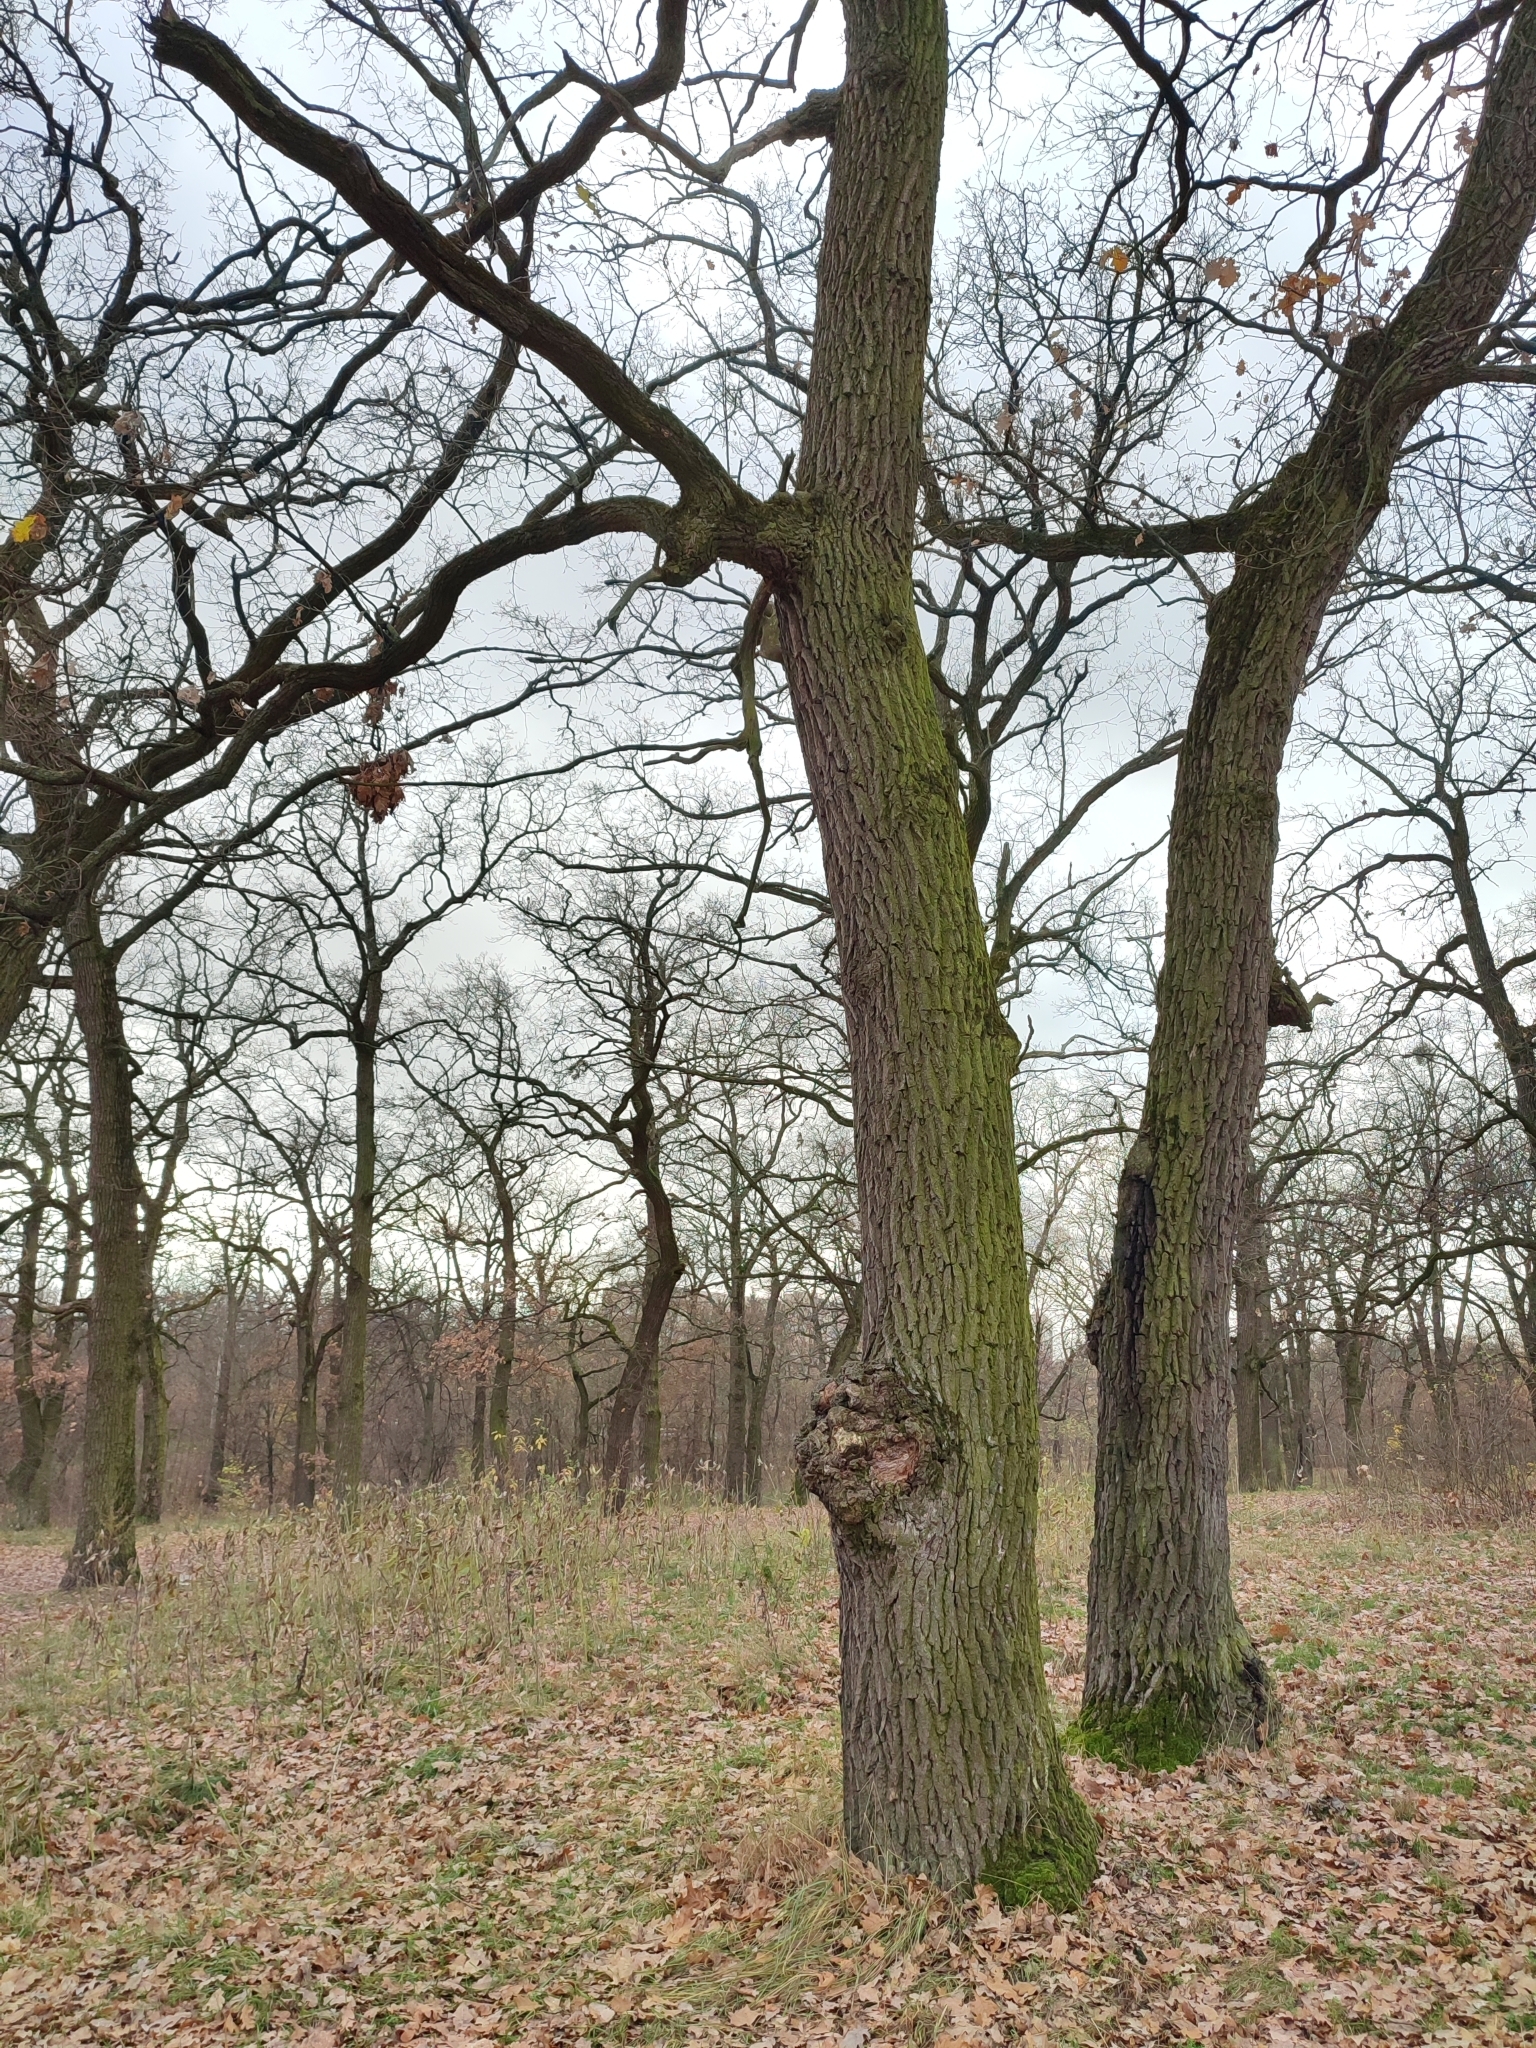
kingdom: Plantae
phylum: Tracheophyta
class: Magnoliopsida
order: Fagales
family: Fagaceae
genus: Quercus
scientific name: Quercus robur
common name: Pedunculate oak
